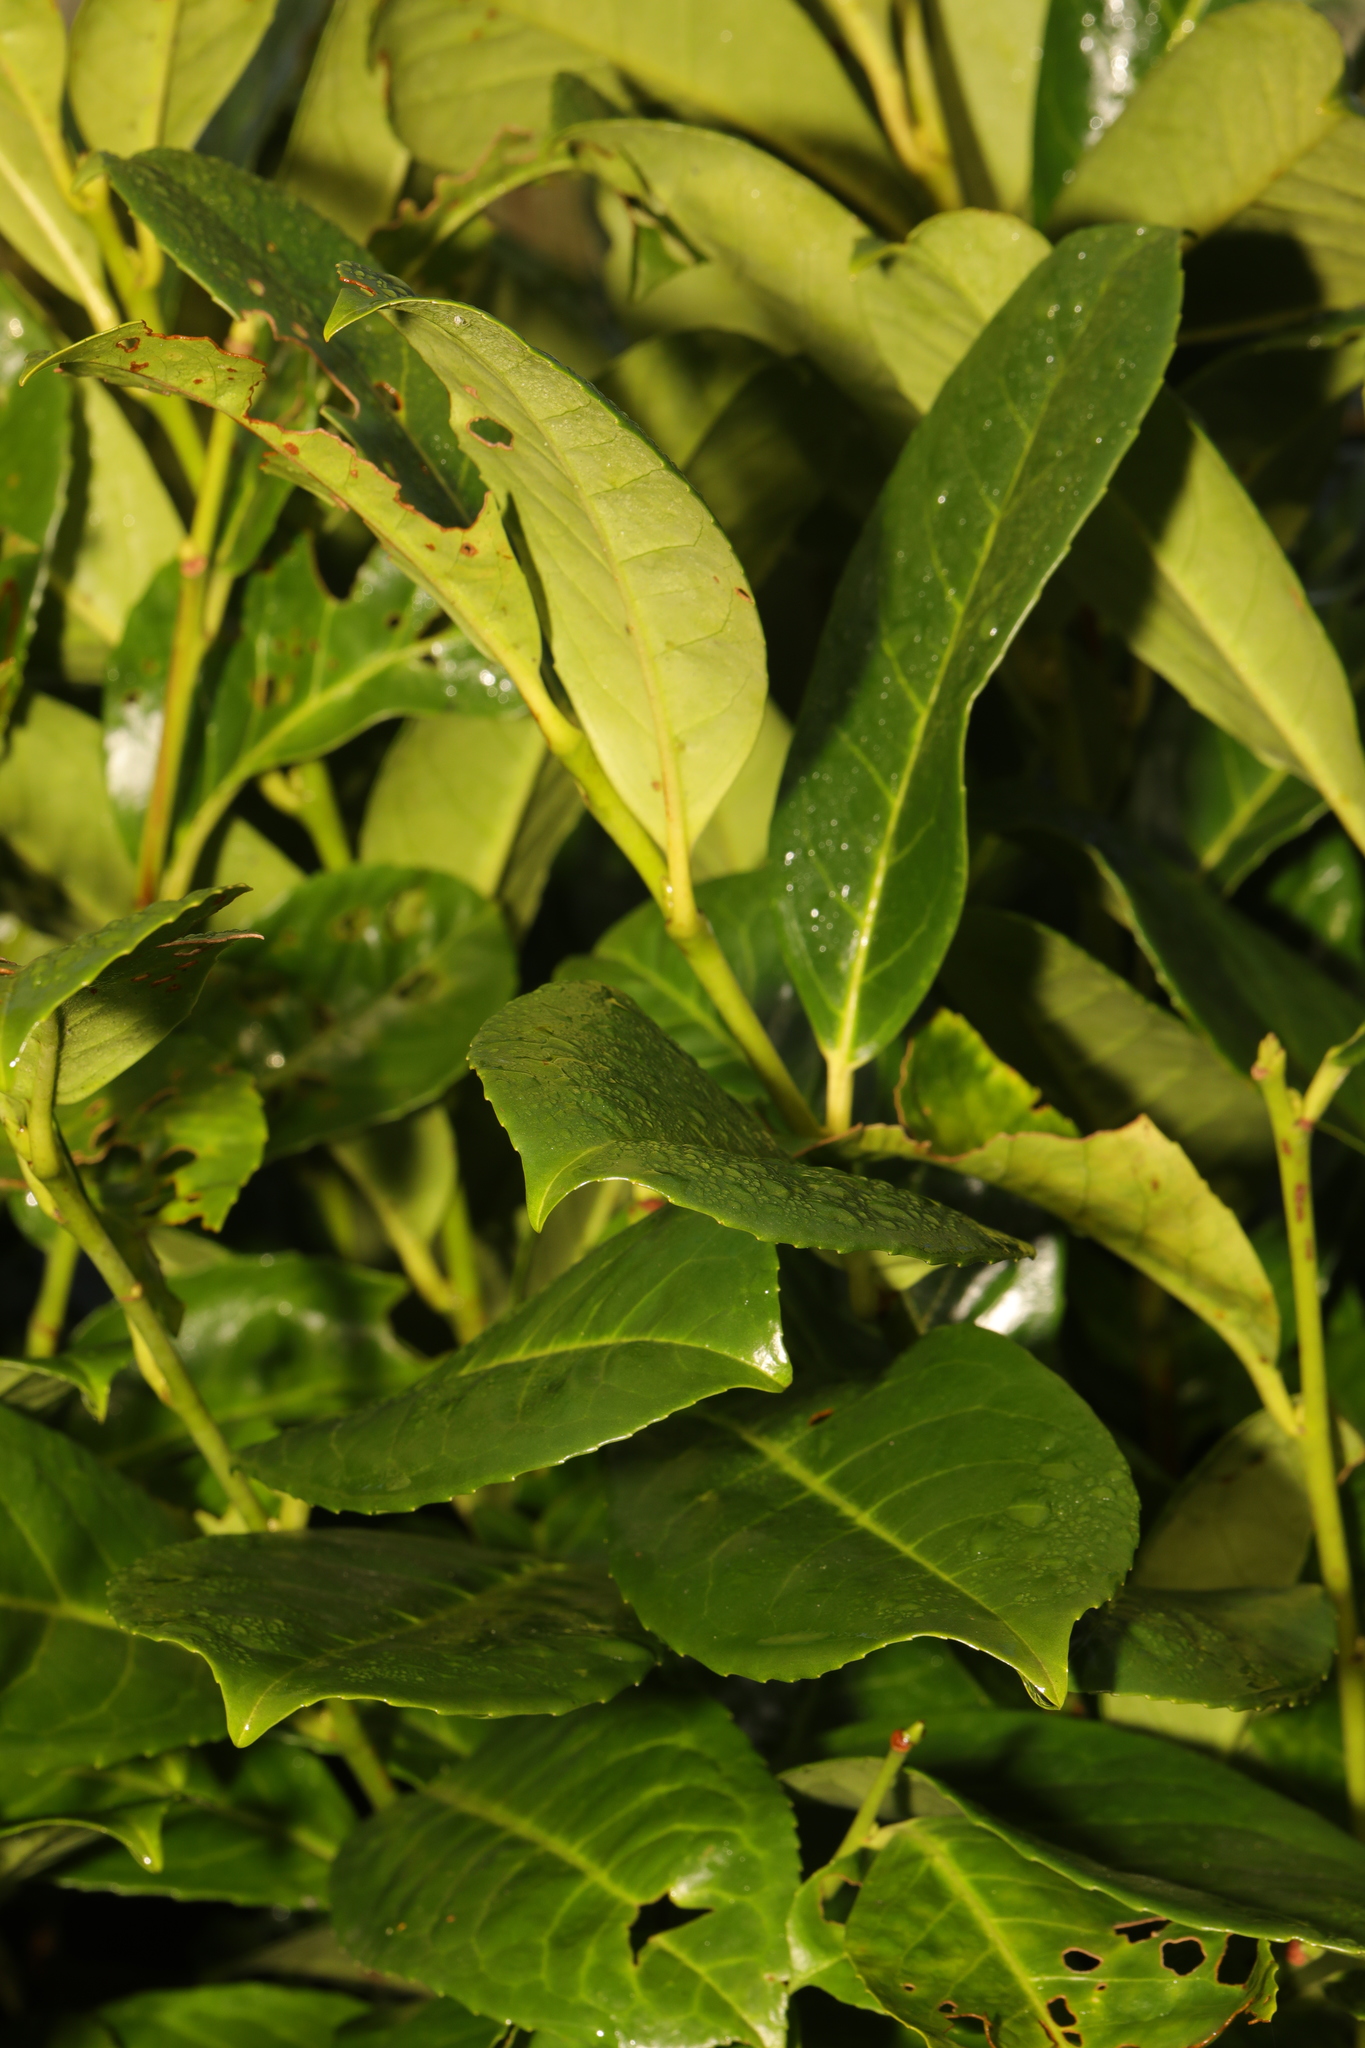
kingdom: Plantae
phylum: Tracheophyta
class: Magnoliopsida
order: Rosales
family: Rosaceae
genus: Prunus
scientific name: Prunus laurocerasus
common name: Cherry laurel
